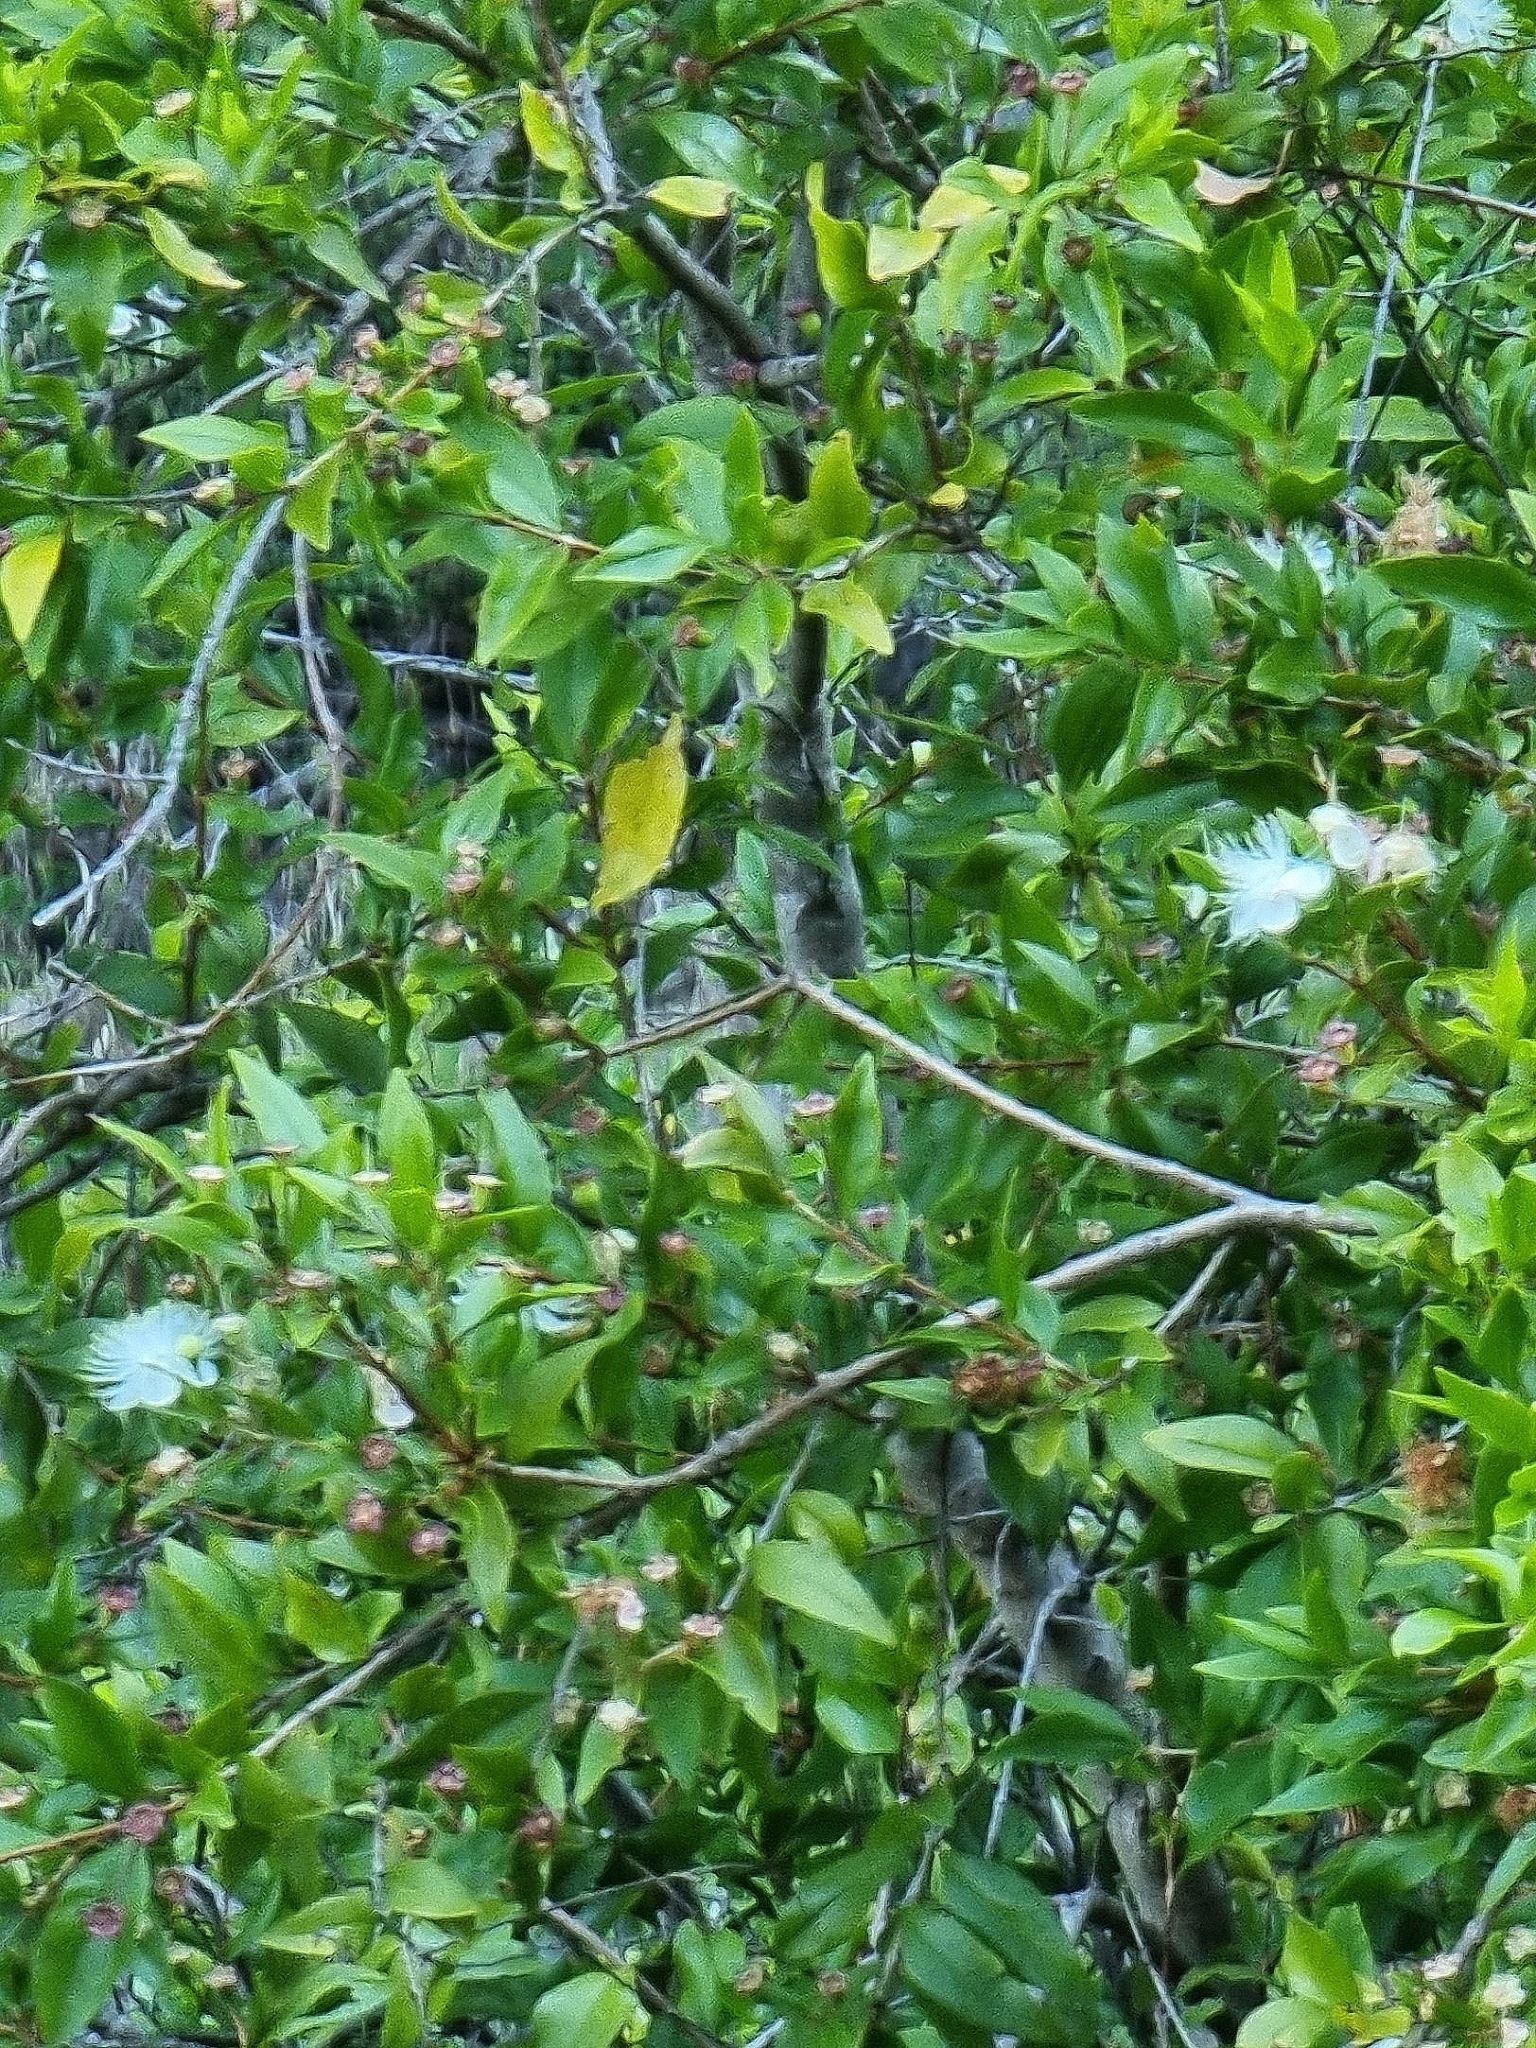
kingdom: Plantae
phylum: Tracheophyta
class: Magnoliopsida
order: Myrtales
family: Myrtaceae
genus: Myrtus
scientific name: Myrtus communis
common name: Myrtle
